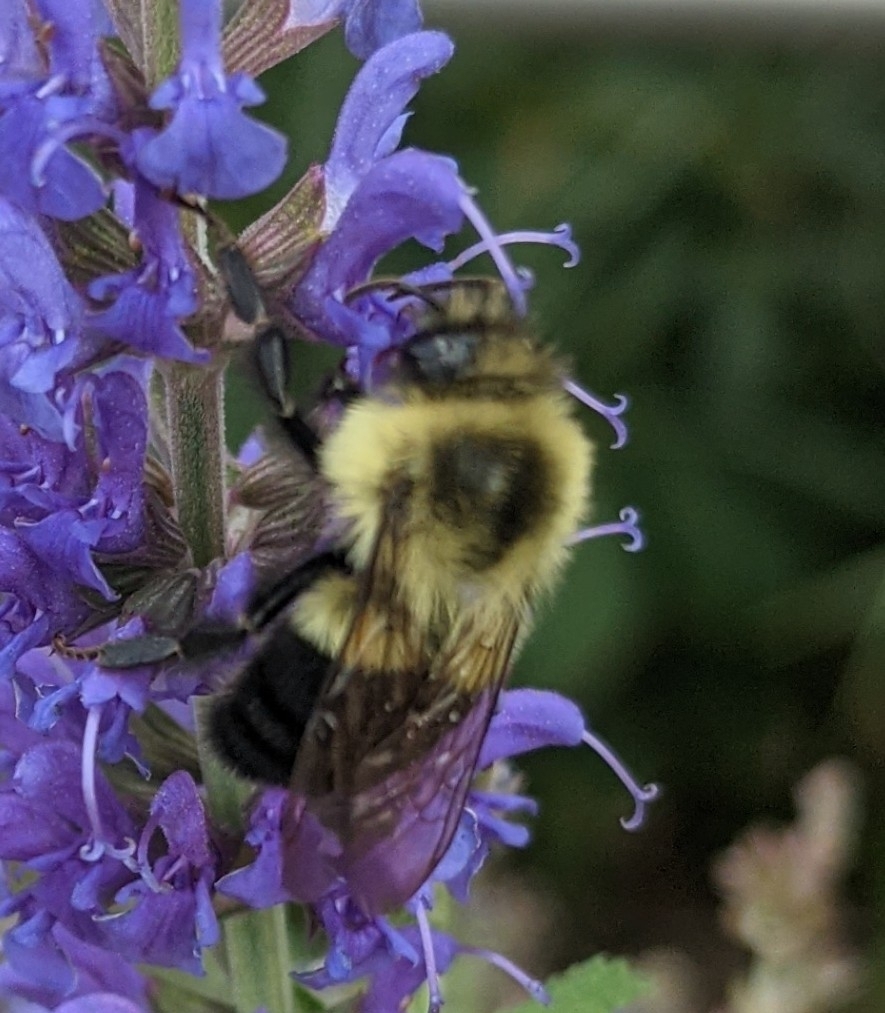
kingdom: Animalia
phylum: Arthropoda
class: Insecta
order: Hymenoptera
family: Apidae
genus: Bombus
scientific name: Bombus impatiens
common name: Common eastern bumble bee
